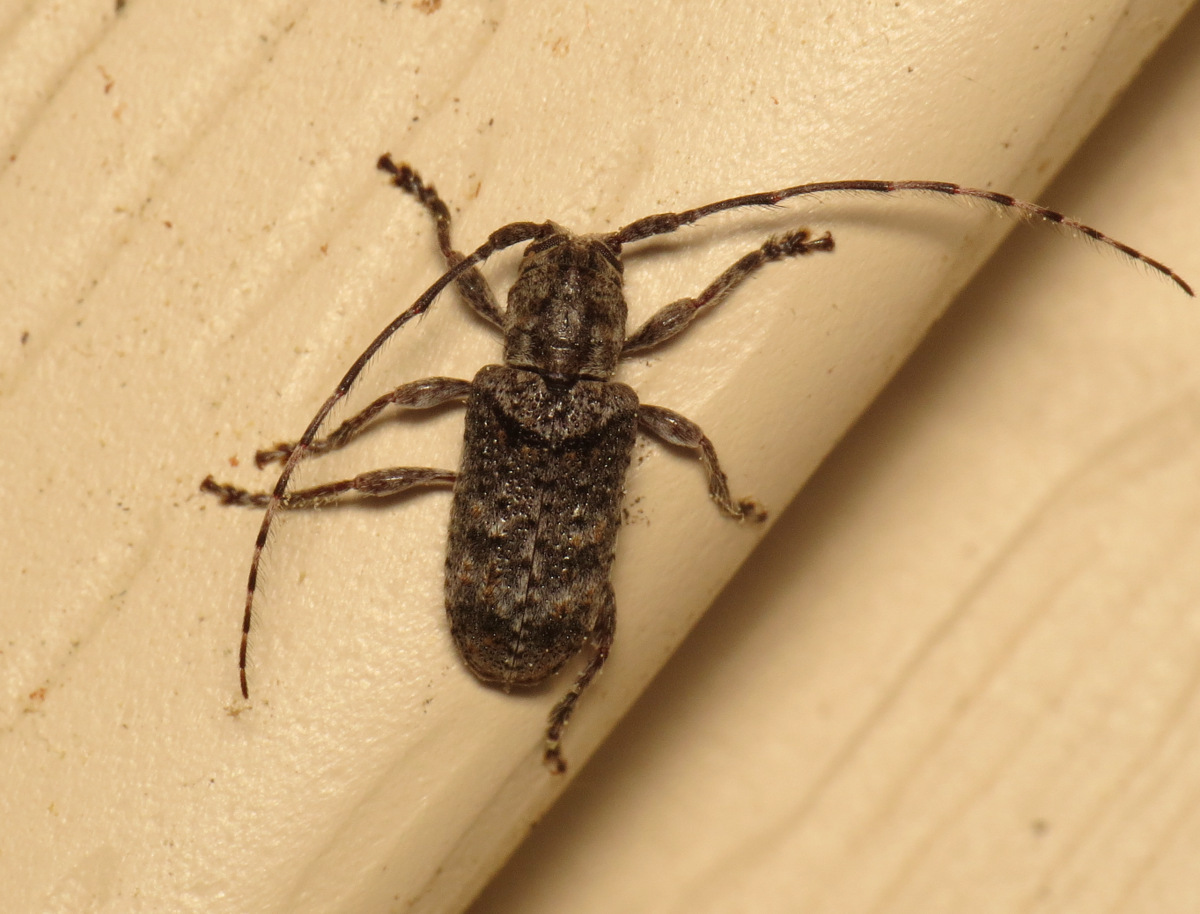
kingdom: Animalia
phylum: Arthropoda
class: Insecta
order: Coleoptera
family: Cerambycidae
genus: Ecyrus
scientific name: Ecyrus dasycerus
